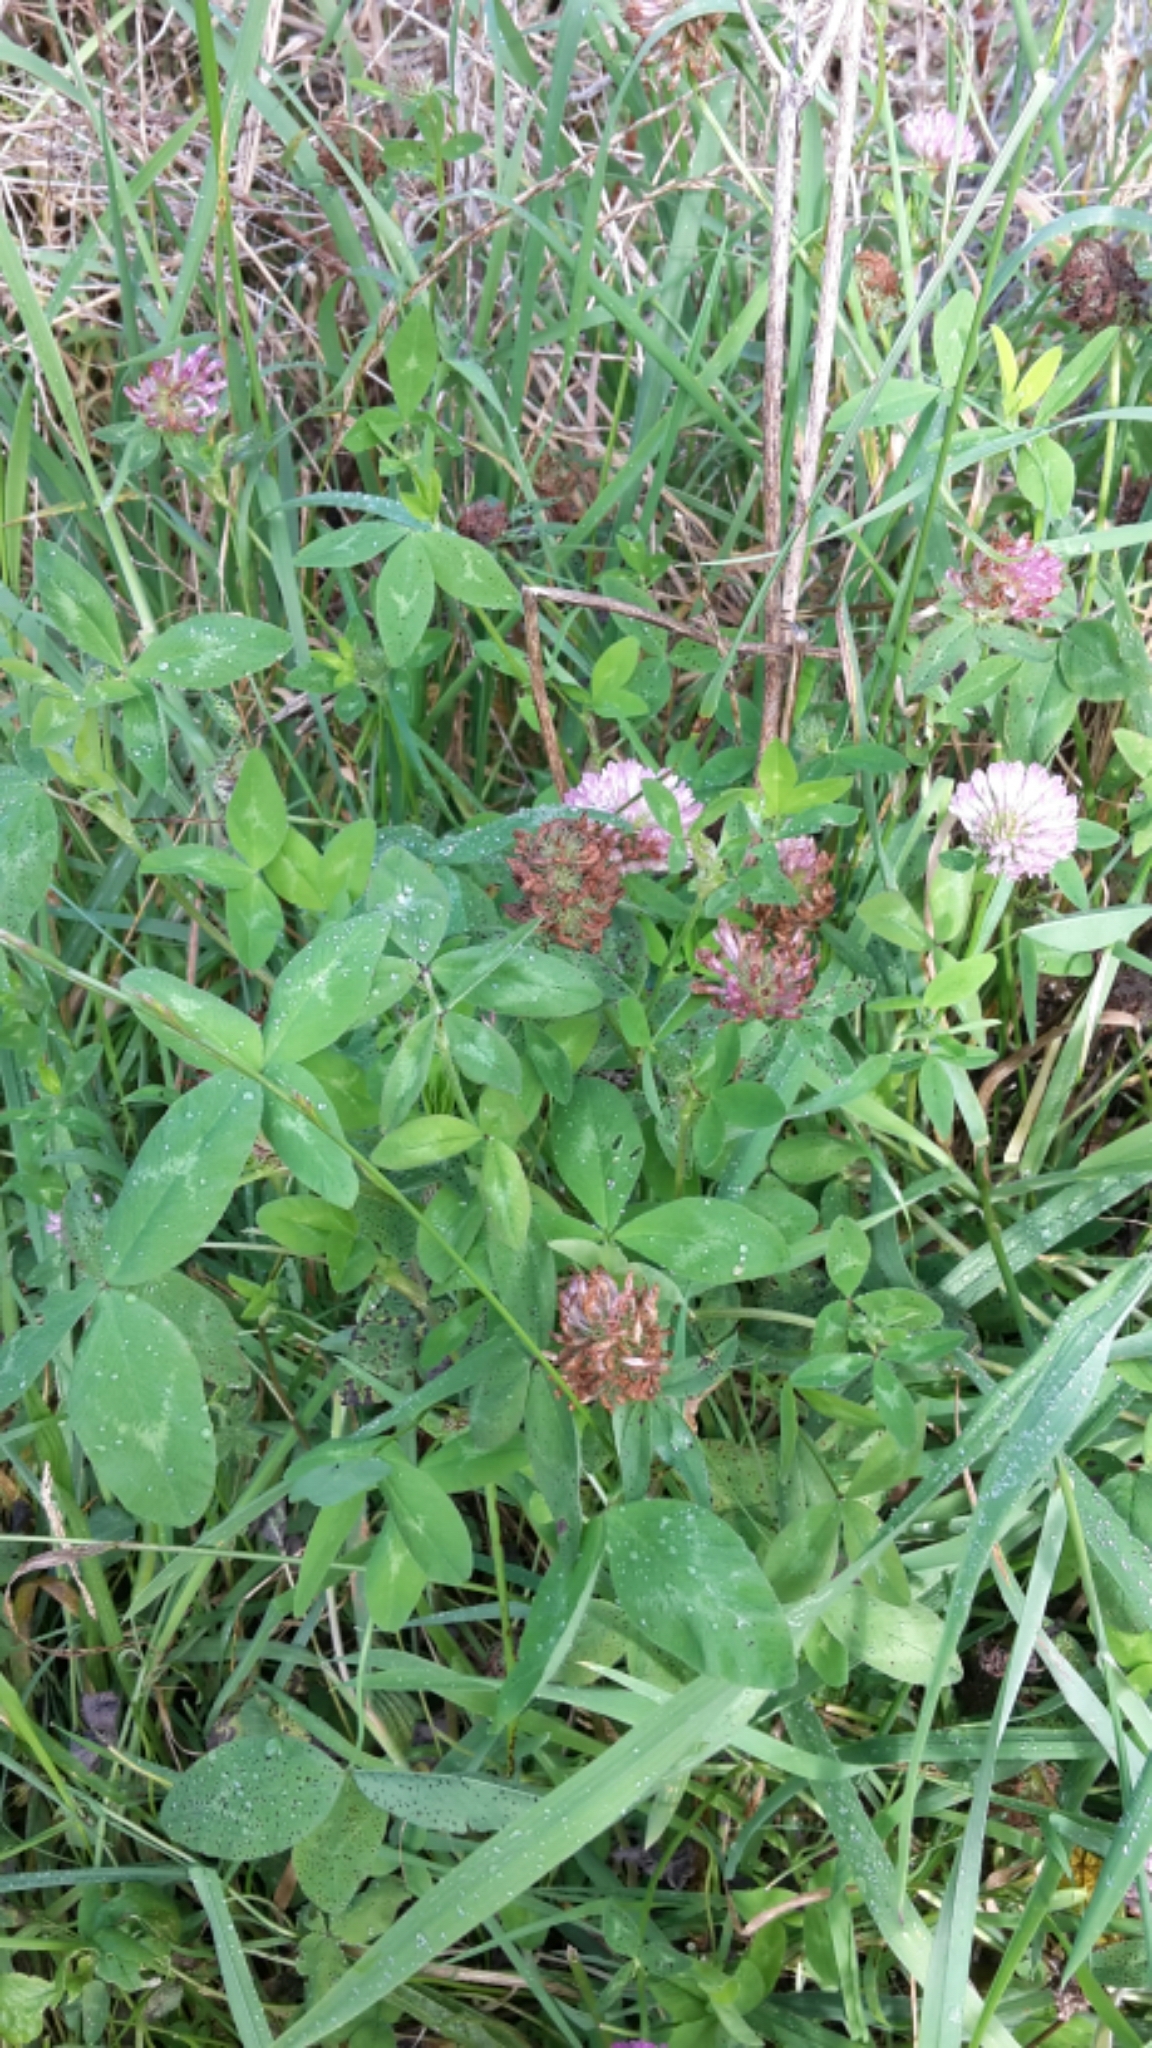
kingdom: Plantae
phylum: Tracheophyta
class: Magnoliopsida
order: Fabales
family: Fabaceae
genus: Trifolium
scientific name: Trifolium pratense
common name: Red clover
